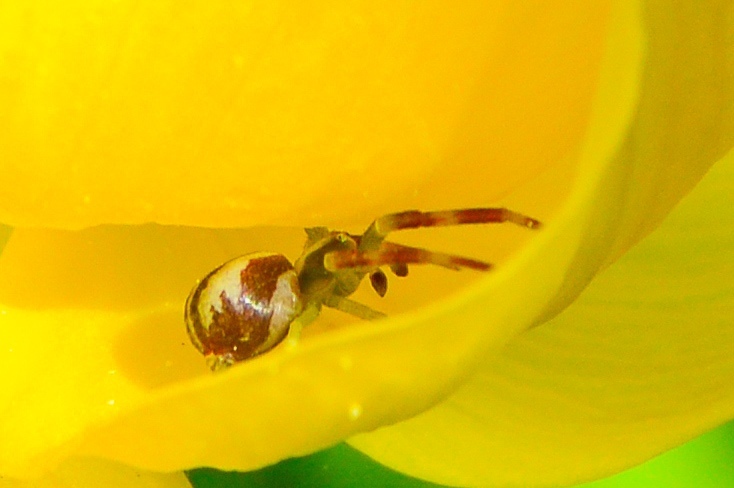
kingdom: Animalia
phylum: Arthropoda
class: Arachnida
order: Araneae
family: Thomisidae
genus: Misumena
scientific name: Misumena vatia
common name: Goldenrod crab spider
